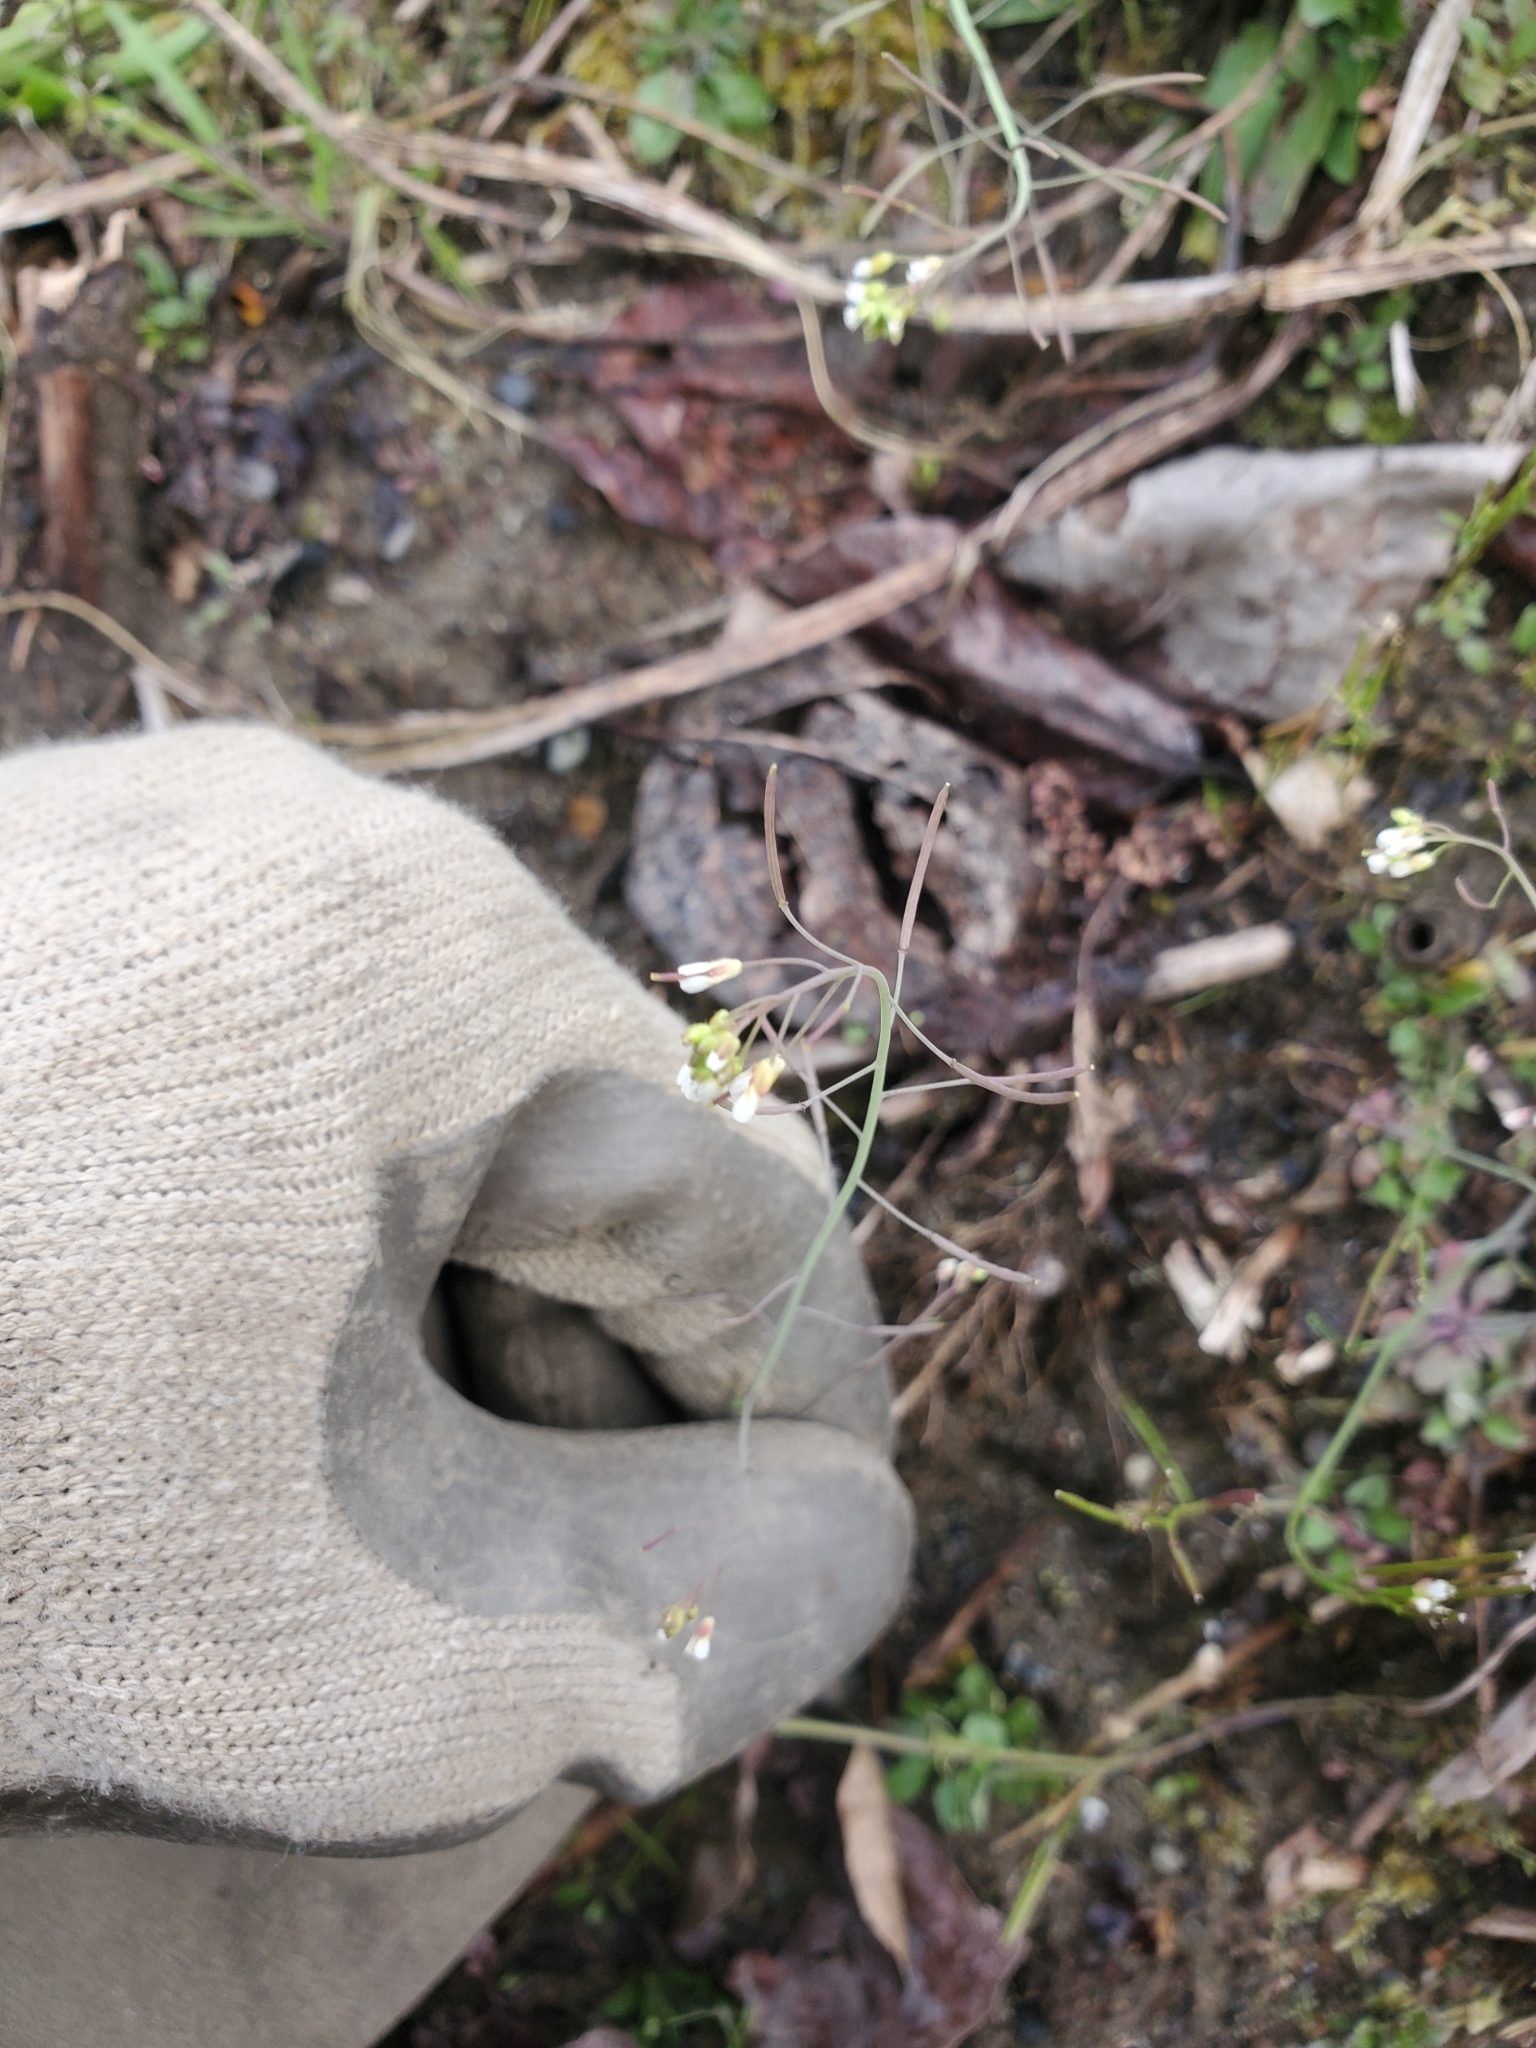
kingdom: Plantae
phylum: Tracheophyta
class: Magnoliopsida
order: Brassicales
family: Brassicaceae
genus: Arabidopsis
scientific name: Arabidopsis thaliana
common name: Thale cress
